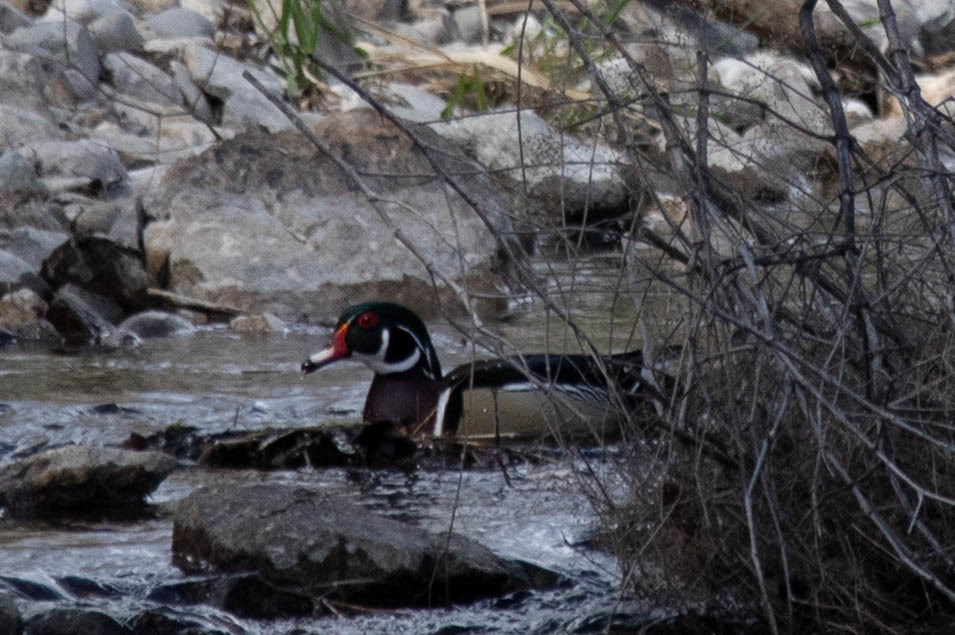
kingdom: Animalia
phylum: Chordata
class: Aves
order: Anseriformes
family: Anatidae
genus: Aix
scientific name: Aix sponsa
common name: Wood duck
